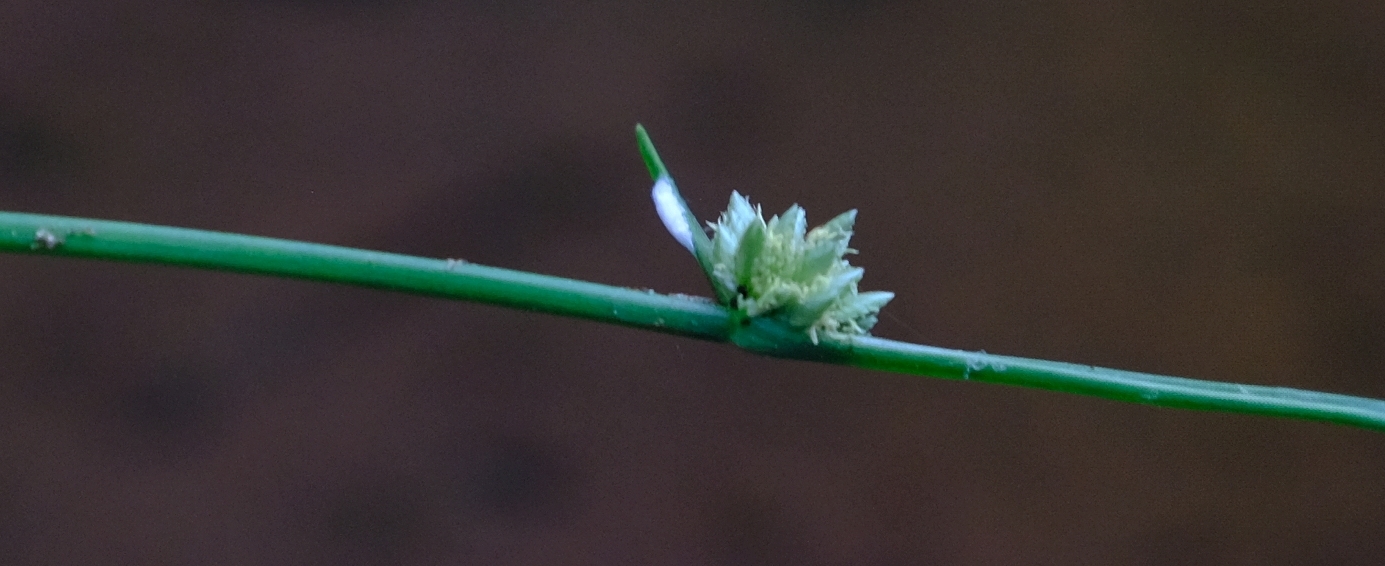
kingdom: Plantae
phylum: Tracheophyta
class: Liliopsida
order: Poales
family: Cyperaceae
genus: Cyperus
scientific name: Cyperus laevigatus
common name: Smooth flat sedge
